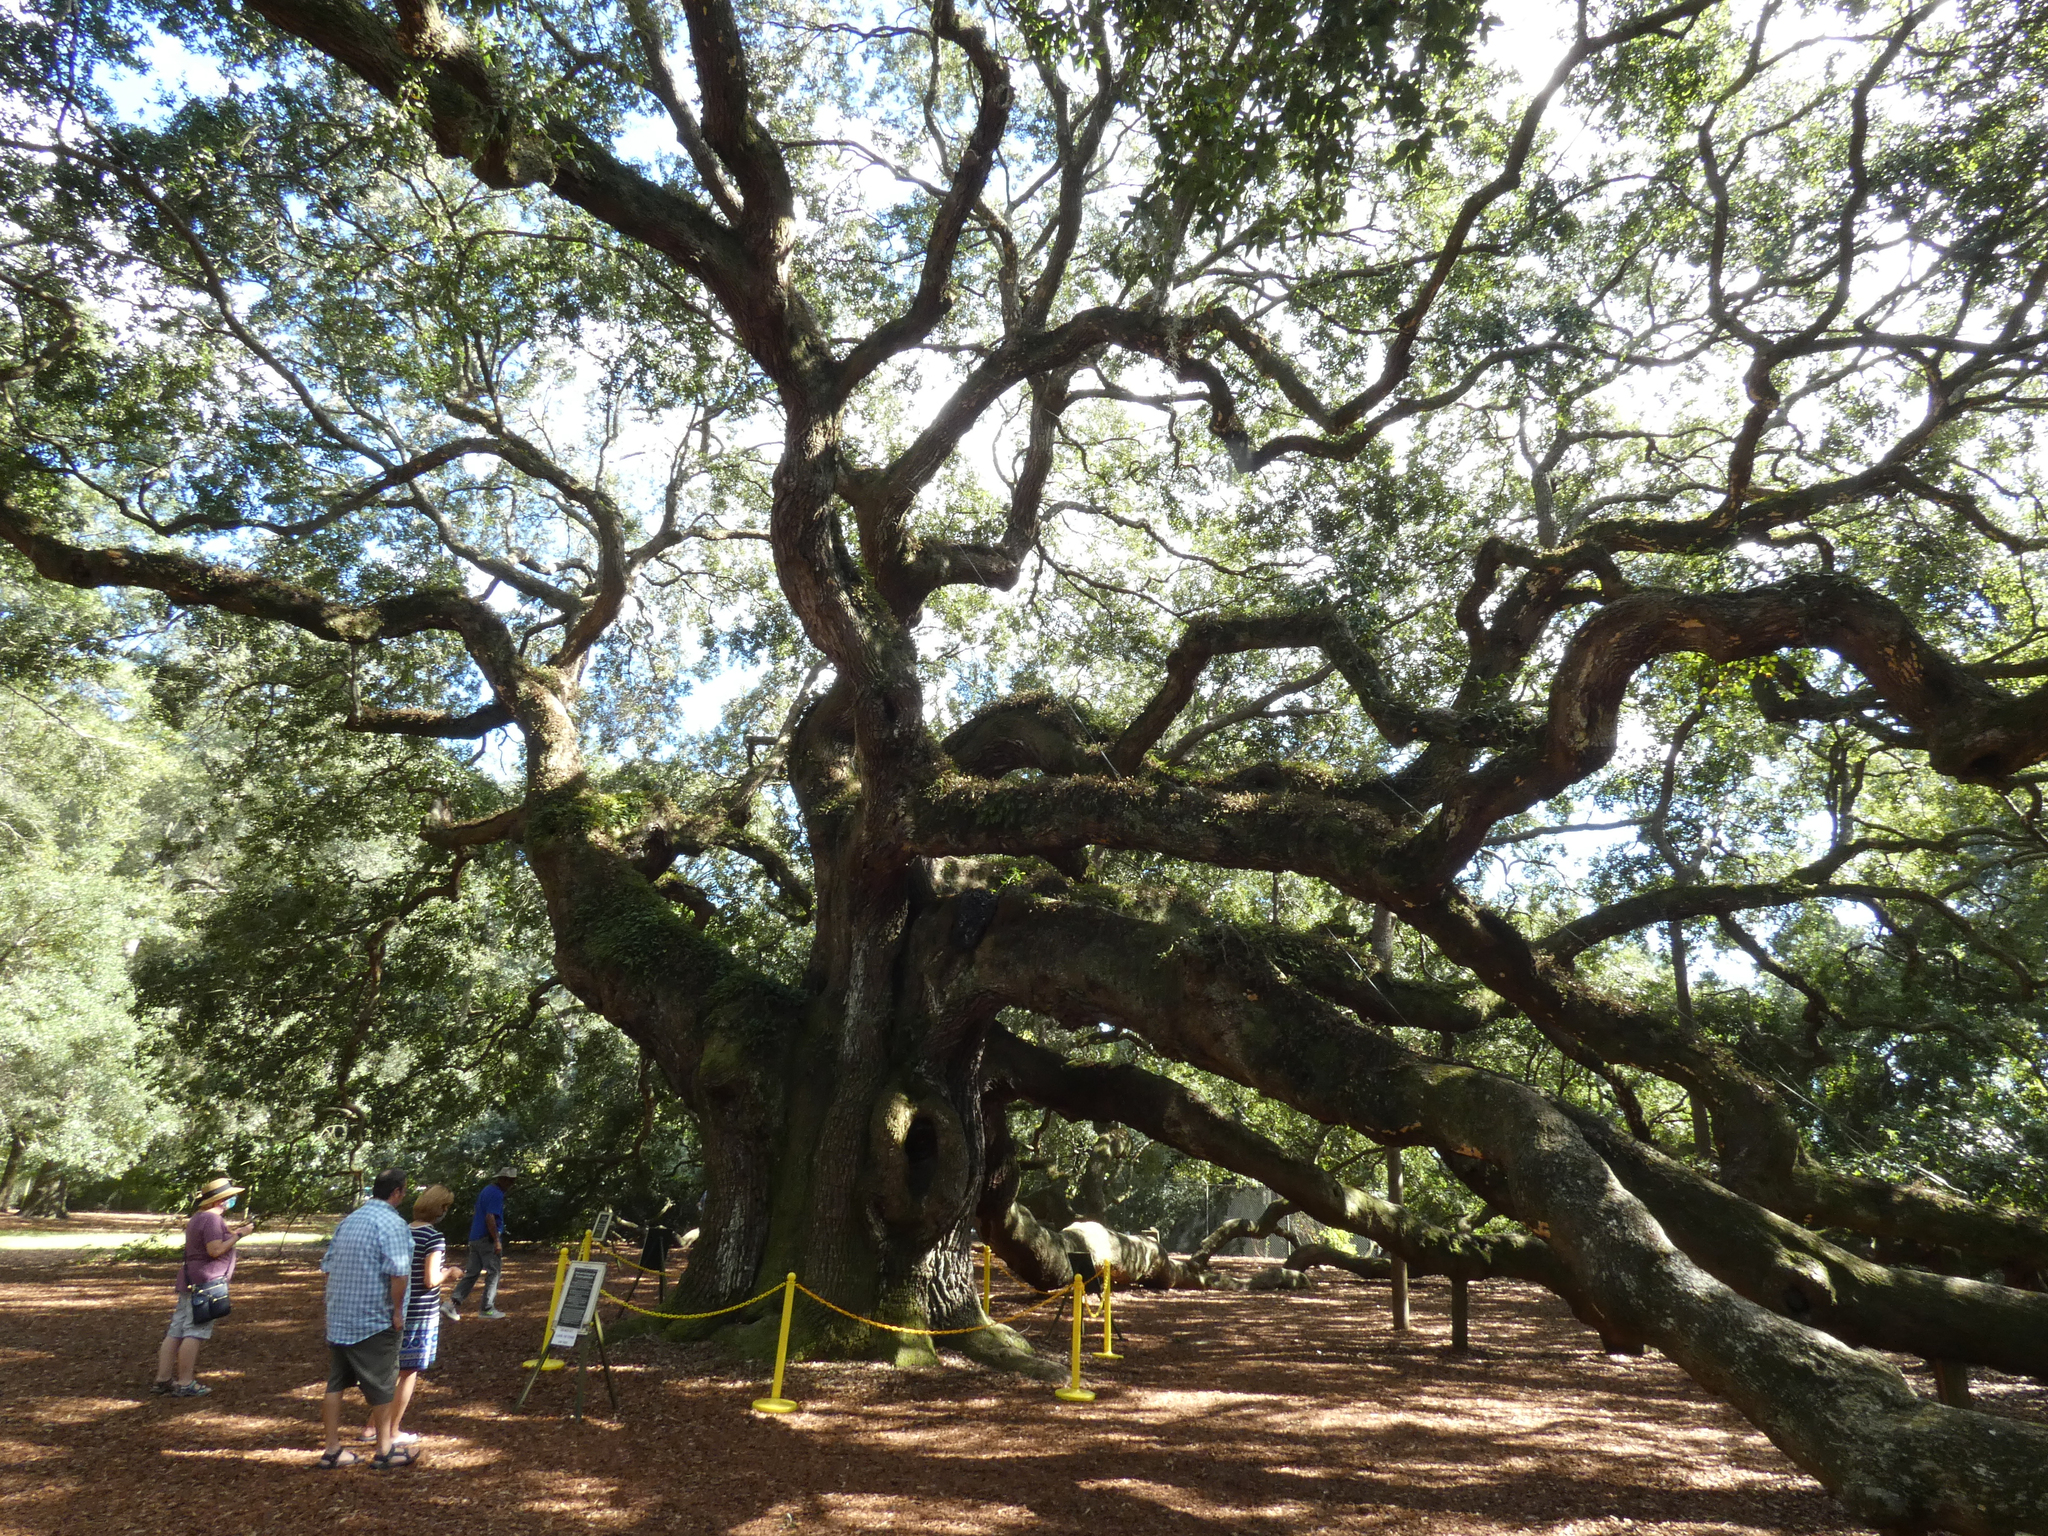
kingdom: Plantae
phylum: Tracheophyta
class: Magnoliopsida
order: Fagales
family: Fagaceae
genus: Quercus
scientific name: Quercus virginiana
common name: Southern live oak
